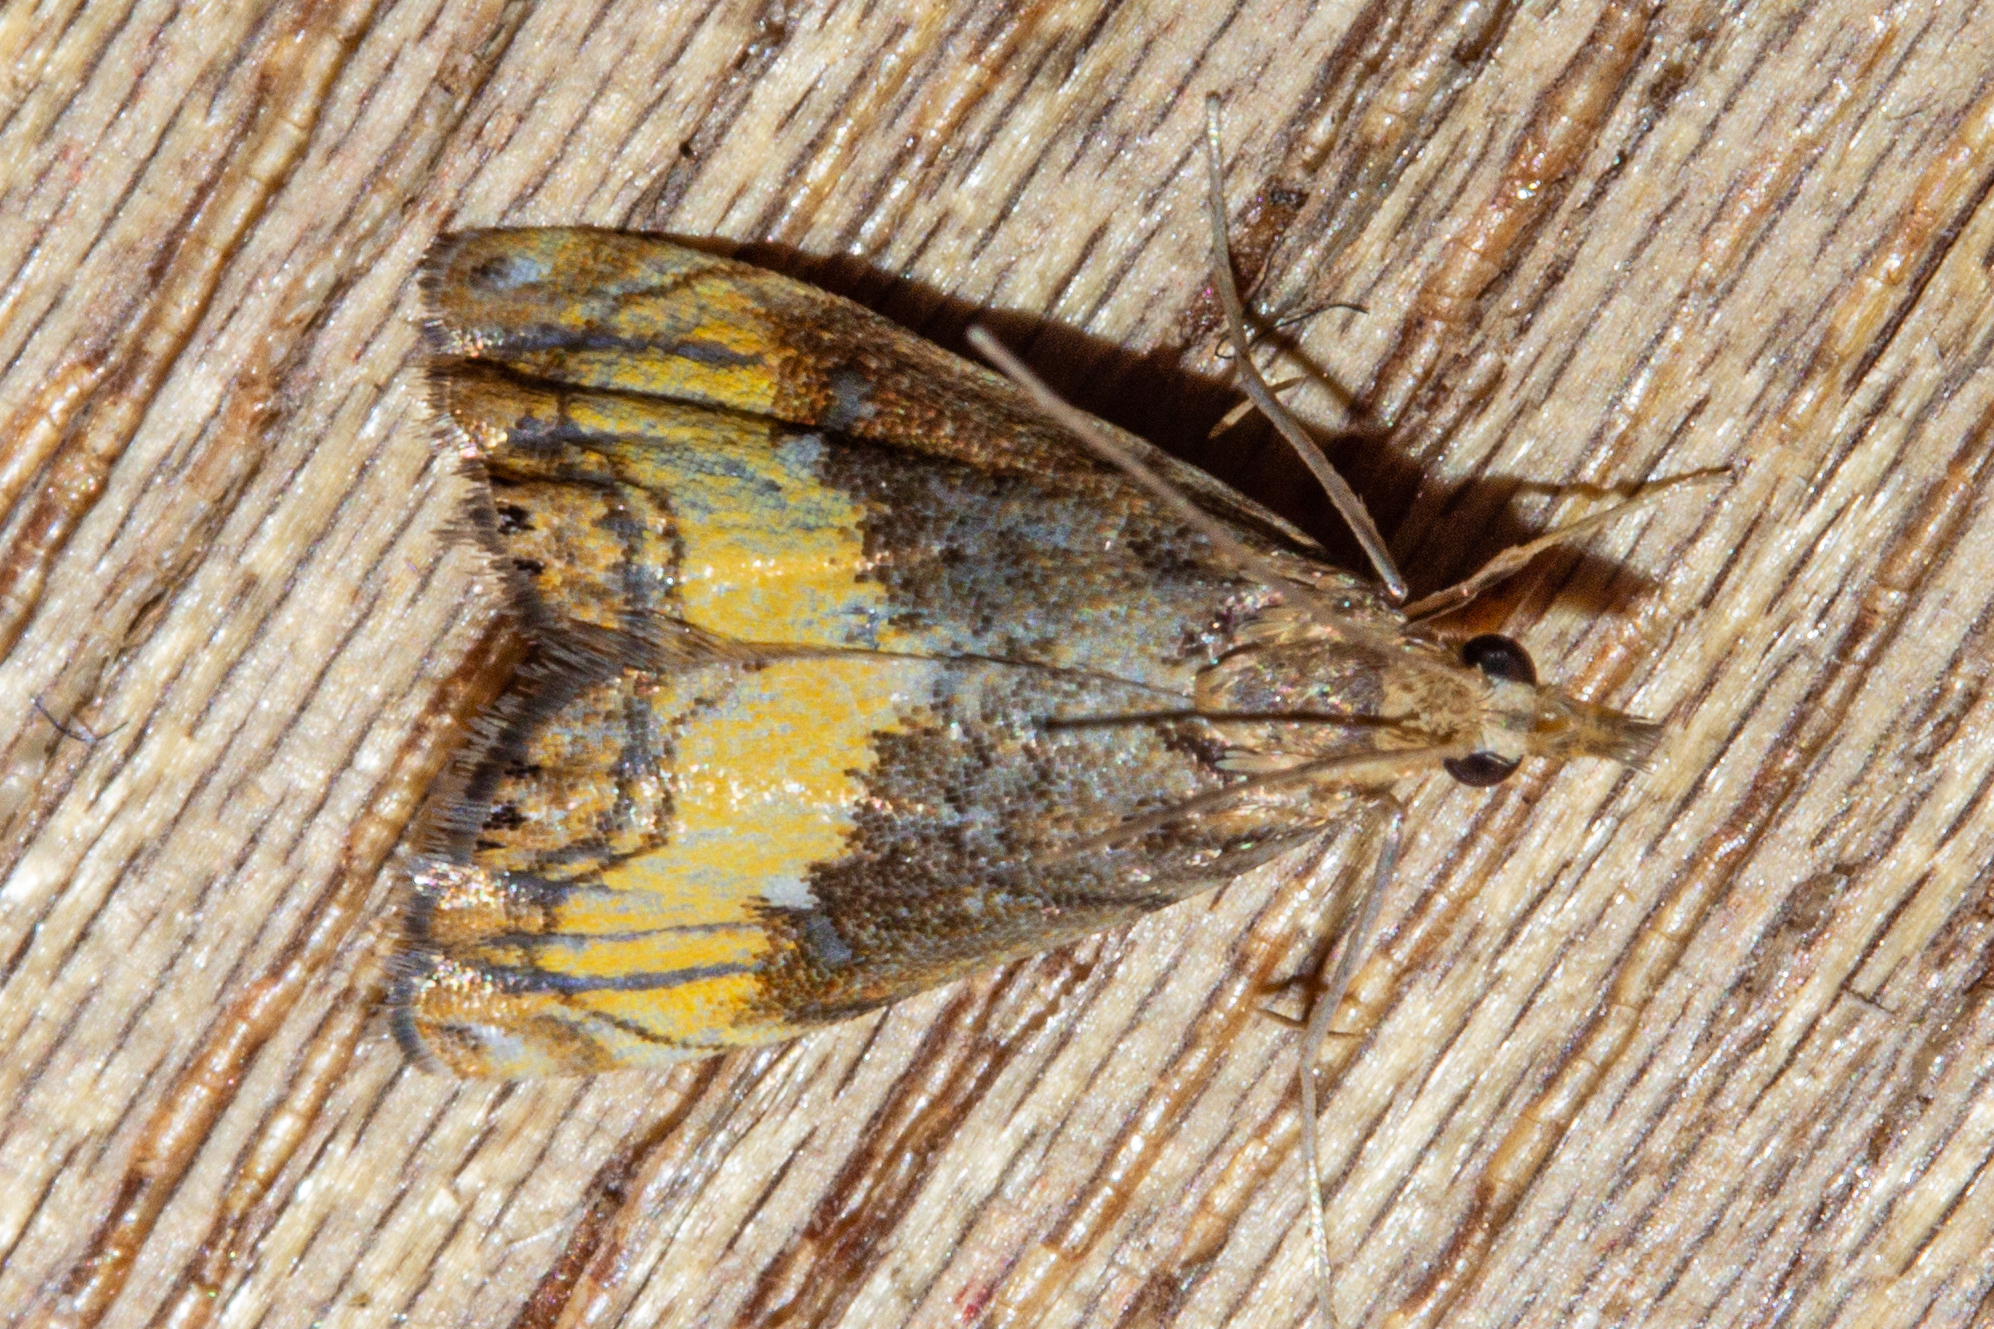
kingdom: Animalia
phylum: Arthropoda
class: Insecta
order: Lepidoptera
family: Crambidae
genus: Glaucocharis
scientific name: Glaucocharis chrysochyta
